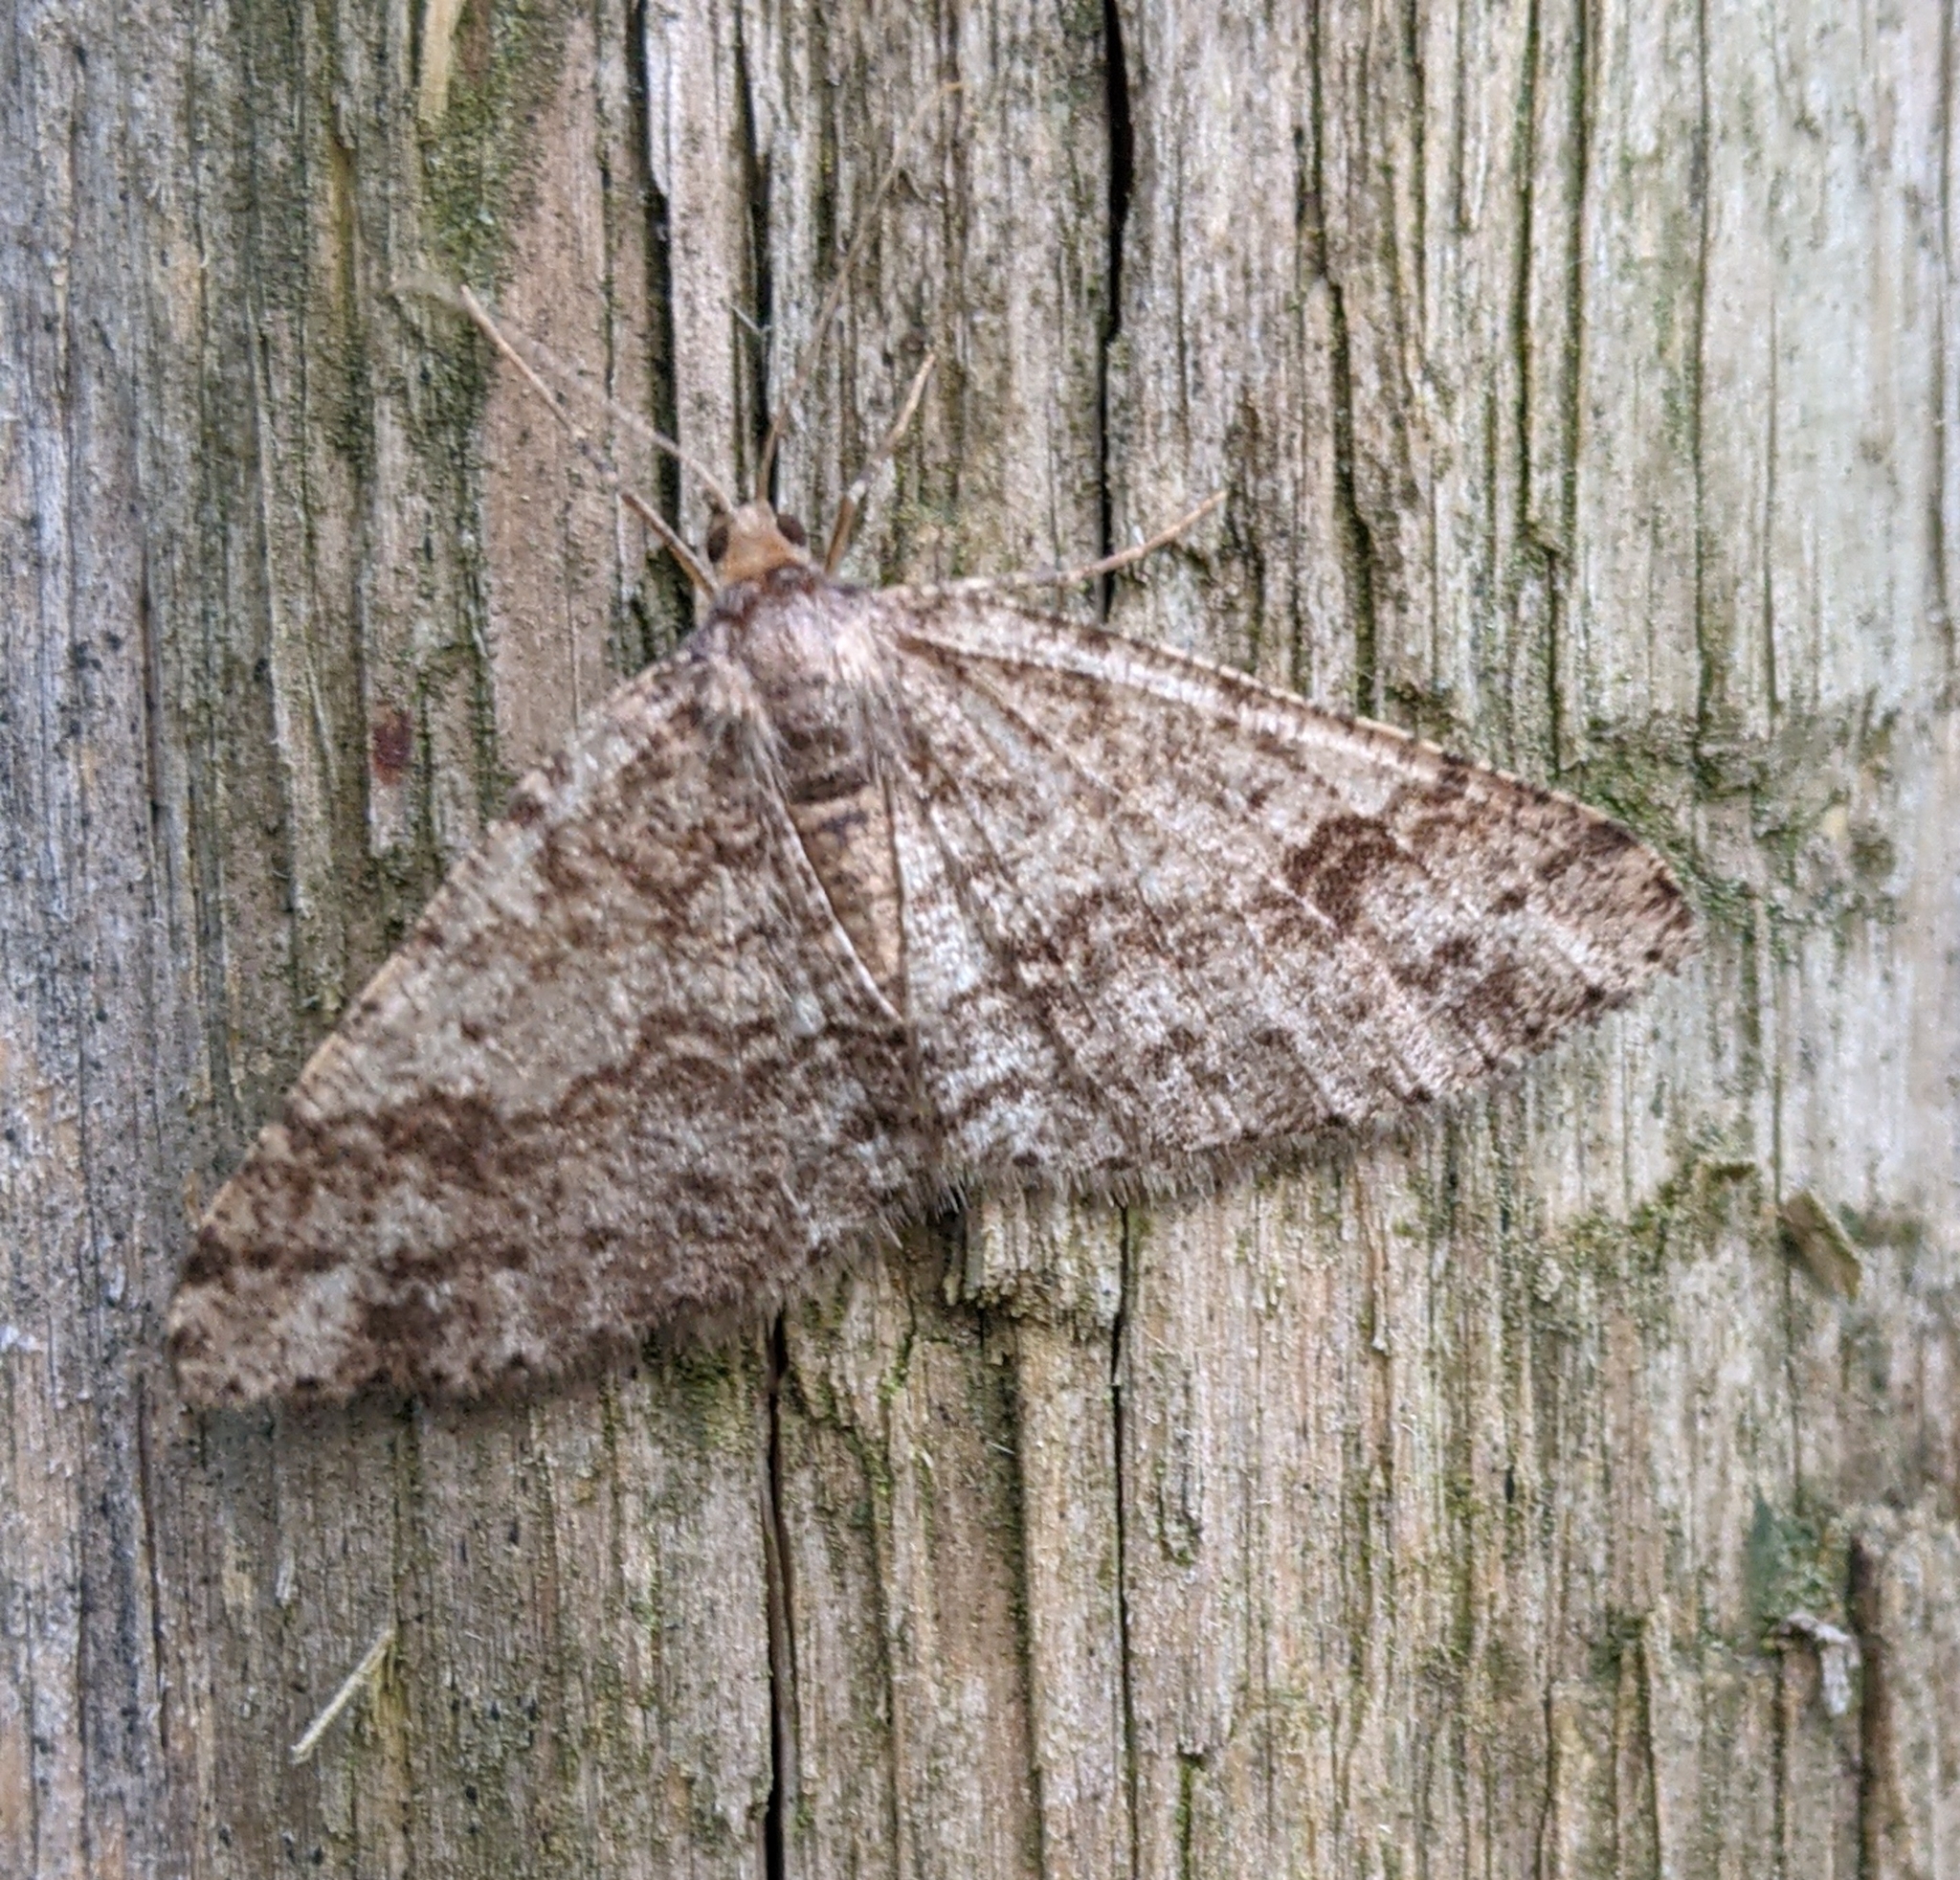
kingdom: Animalia
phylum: Arthropoda
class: Insecta
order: Lepidoptera
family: Geometridae
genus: Melanolophia
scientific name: Melanolophia imitata
